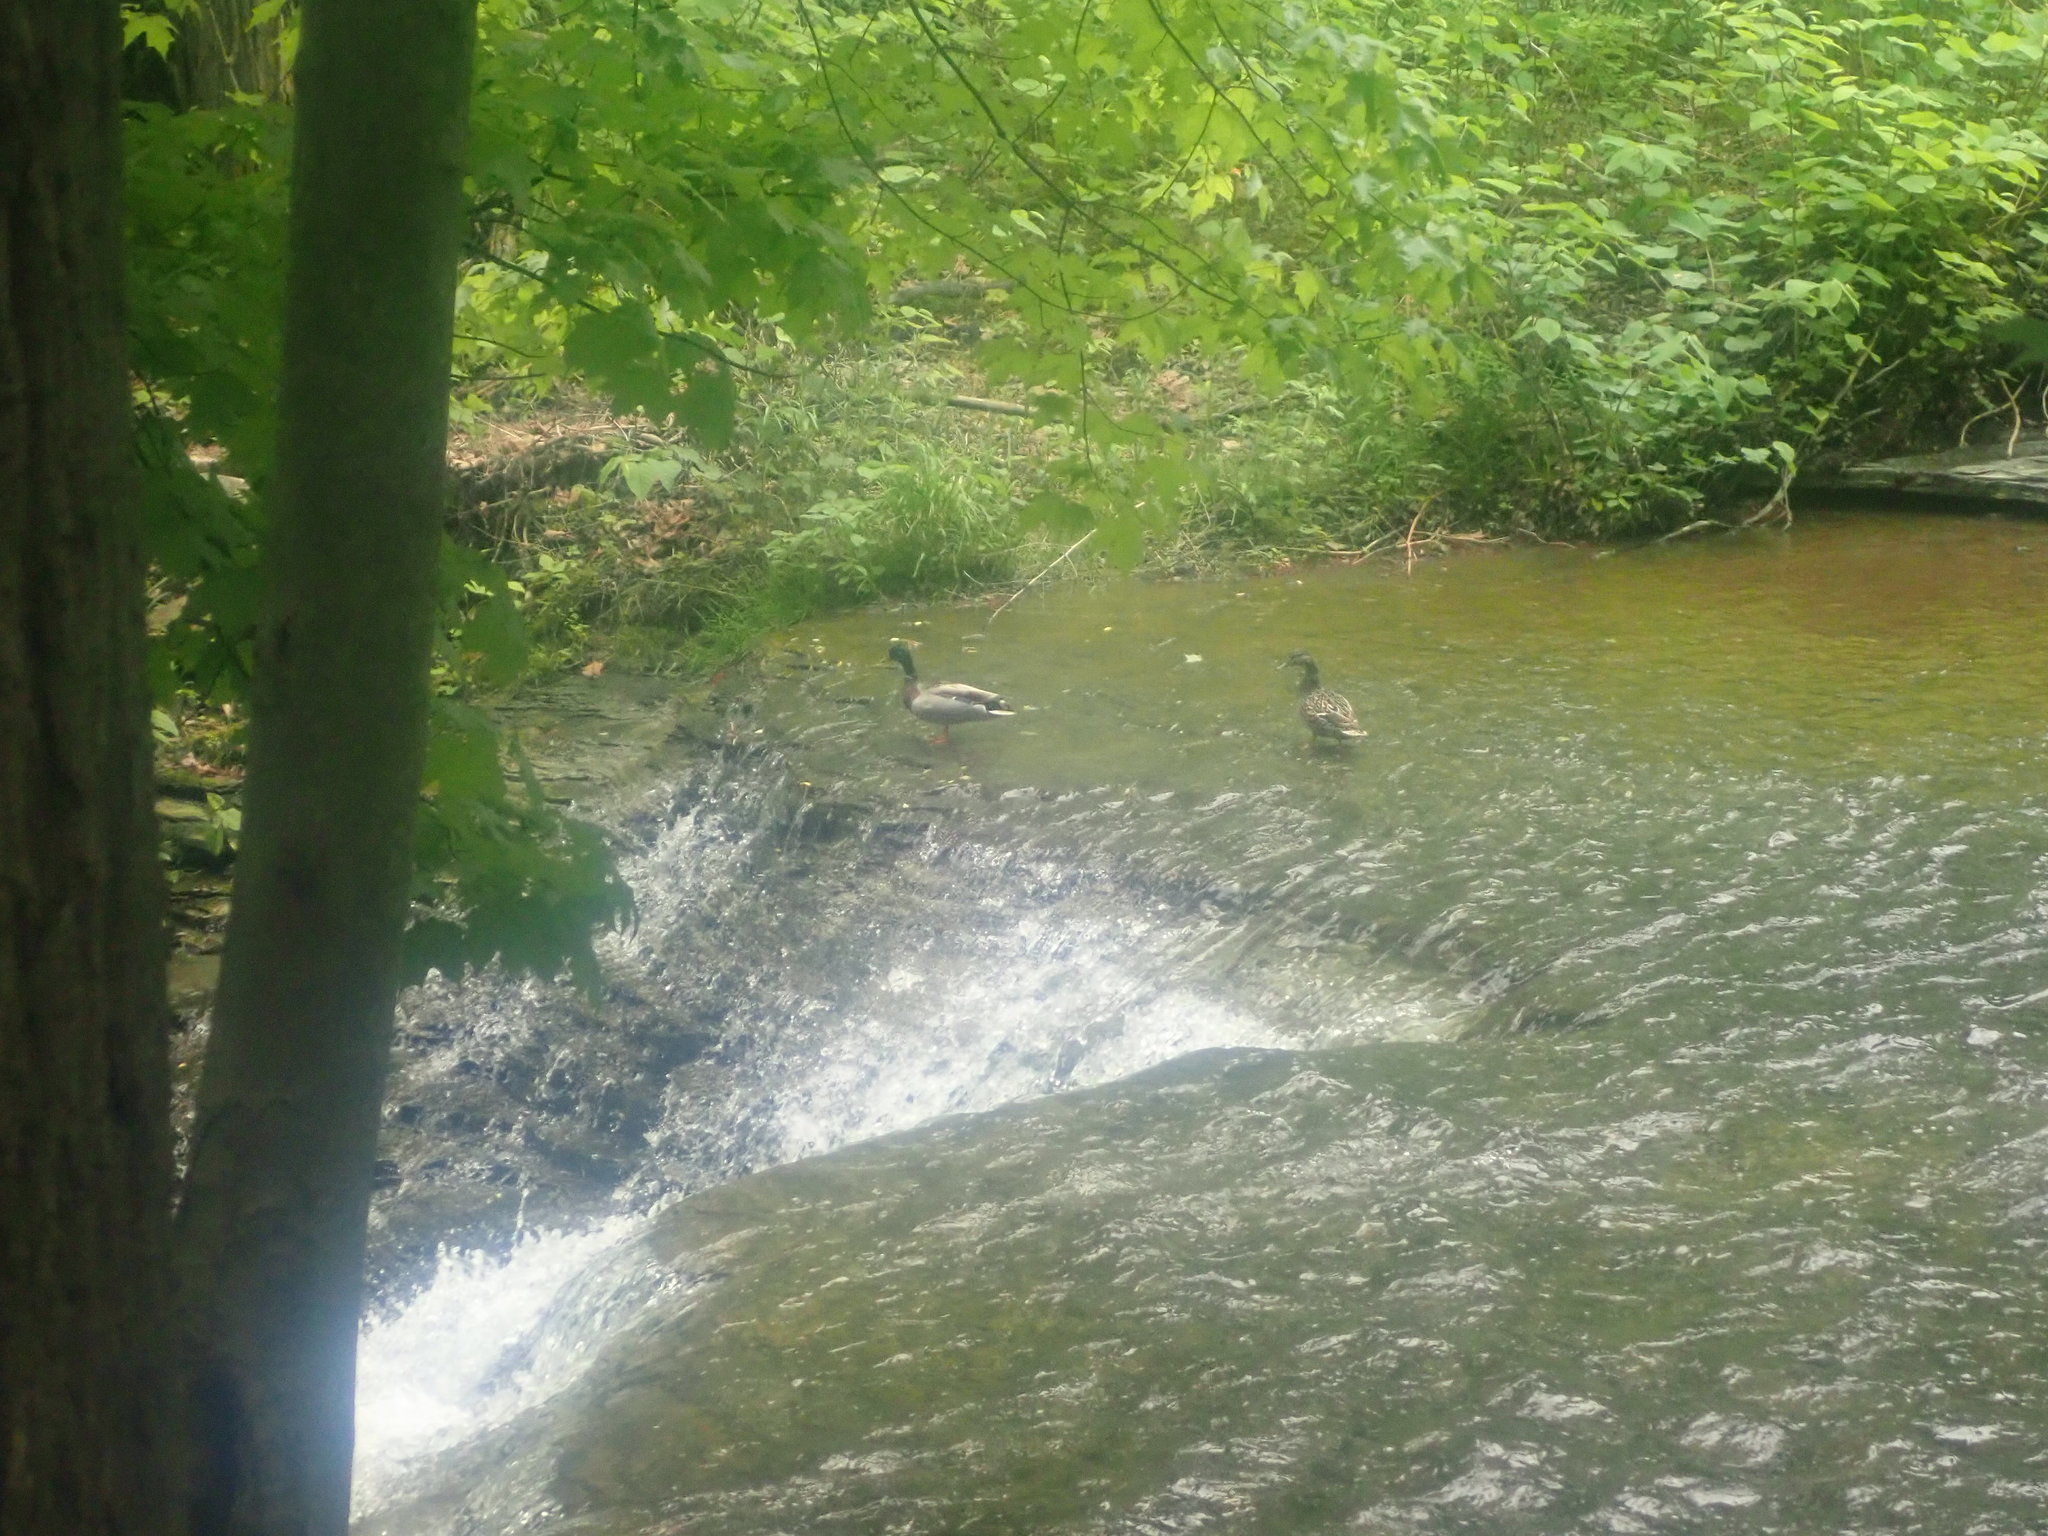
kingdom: Animalia
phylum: Chordata
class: Aves
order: Anseriformes
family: Anatidae
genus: Anas
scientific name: Anas platyrhynchos
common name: Mallard
